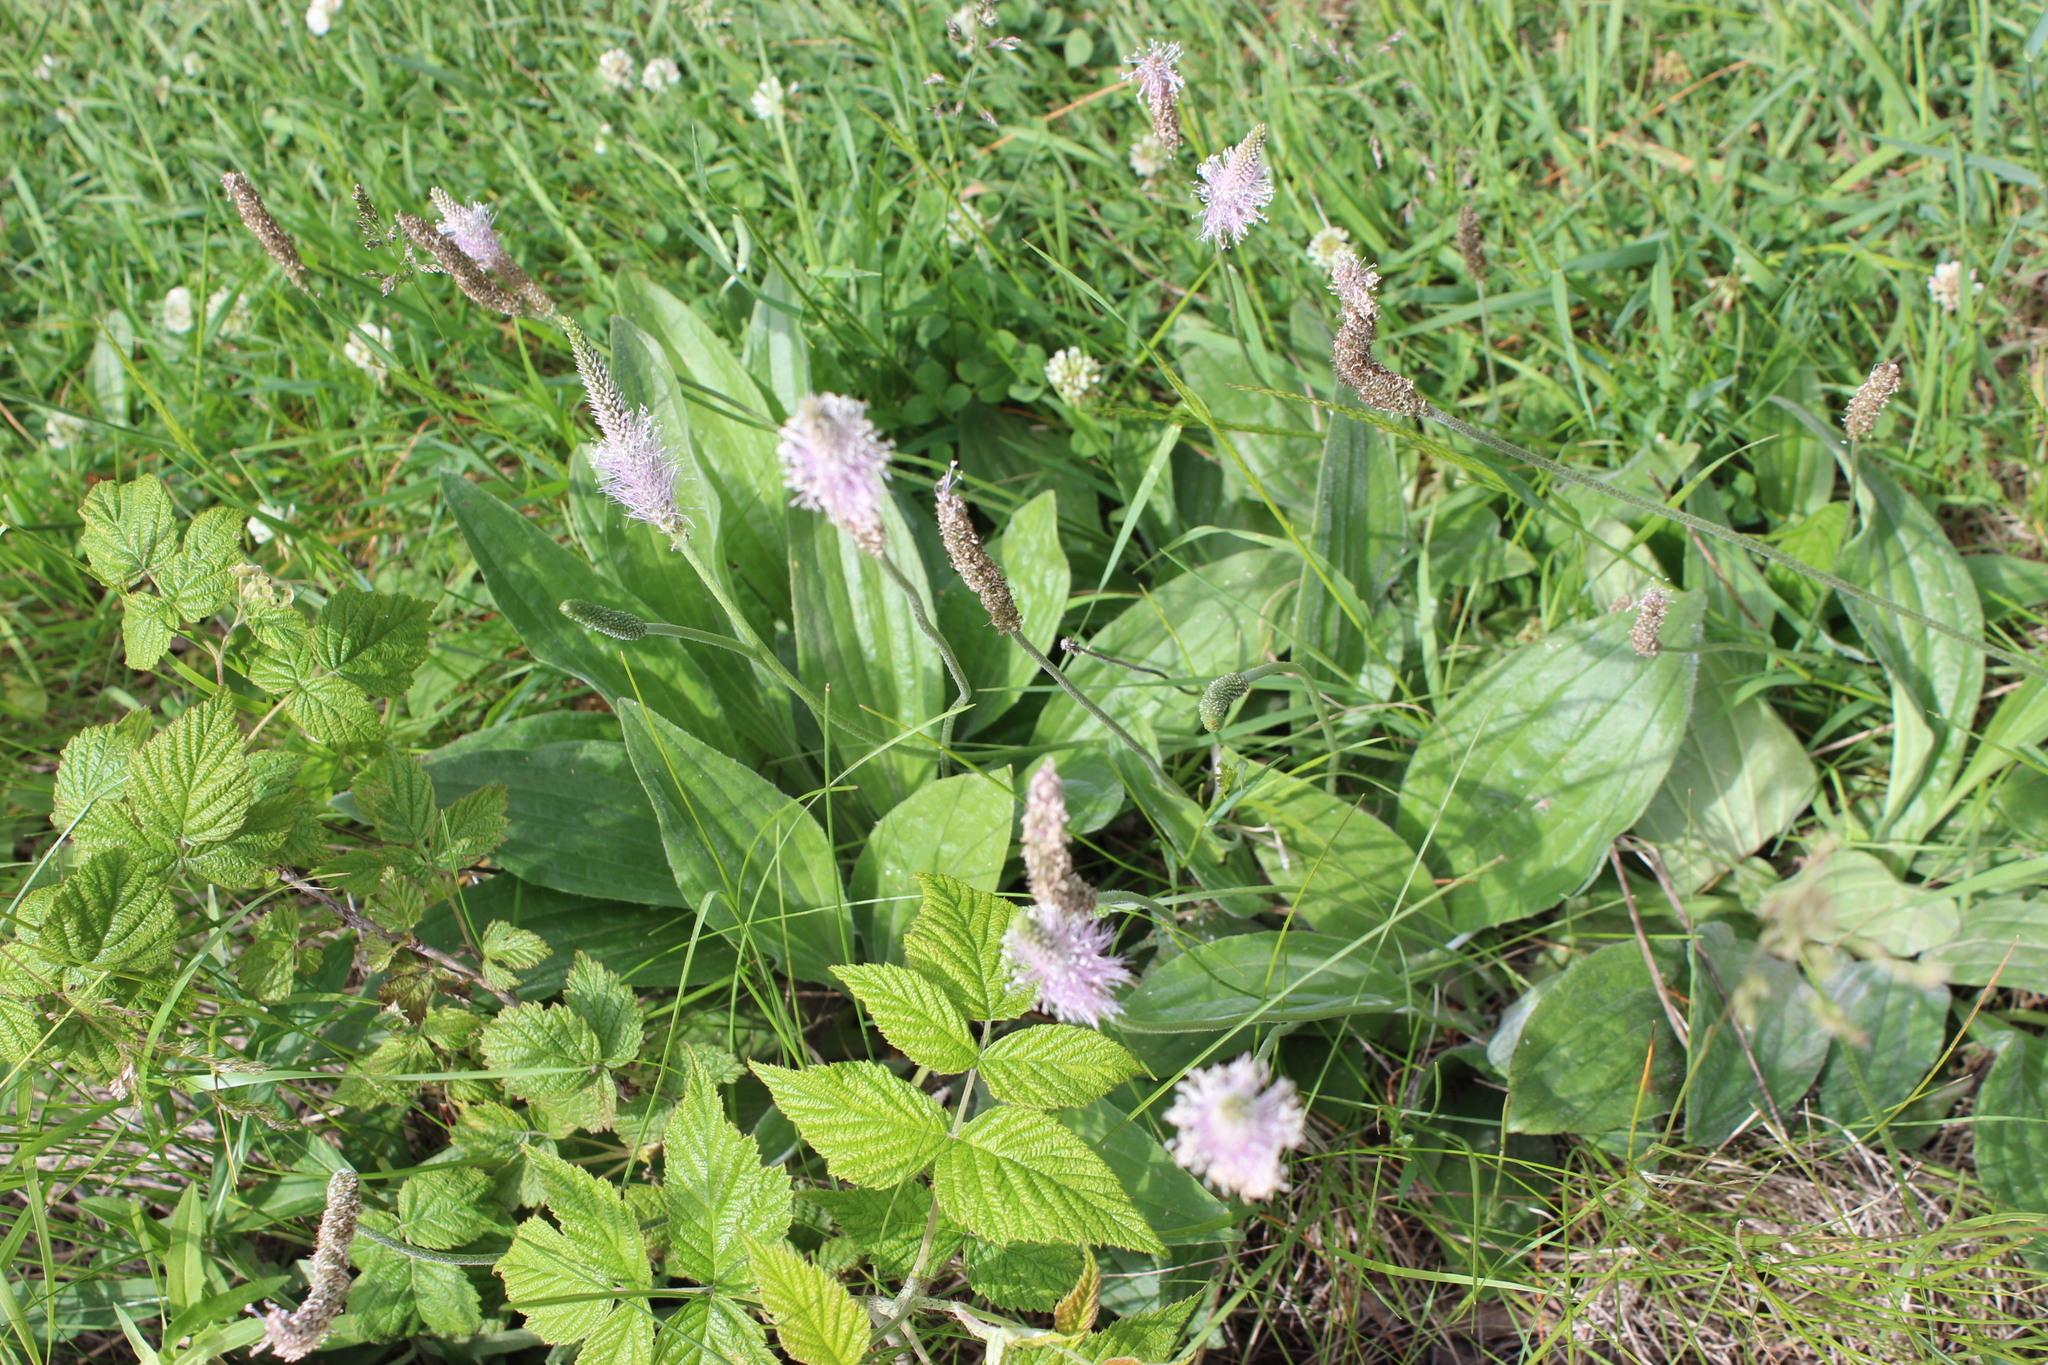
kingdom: Plantae
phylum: Tracheophyta
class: Magnoliopsida
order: Lamiales
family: Plantaginaceae
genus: Plantago
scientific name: Plantago media
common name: Hoary plantain
